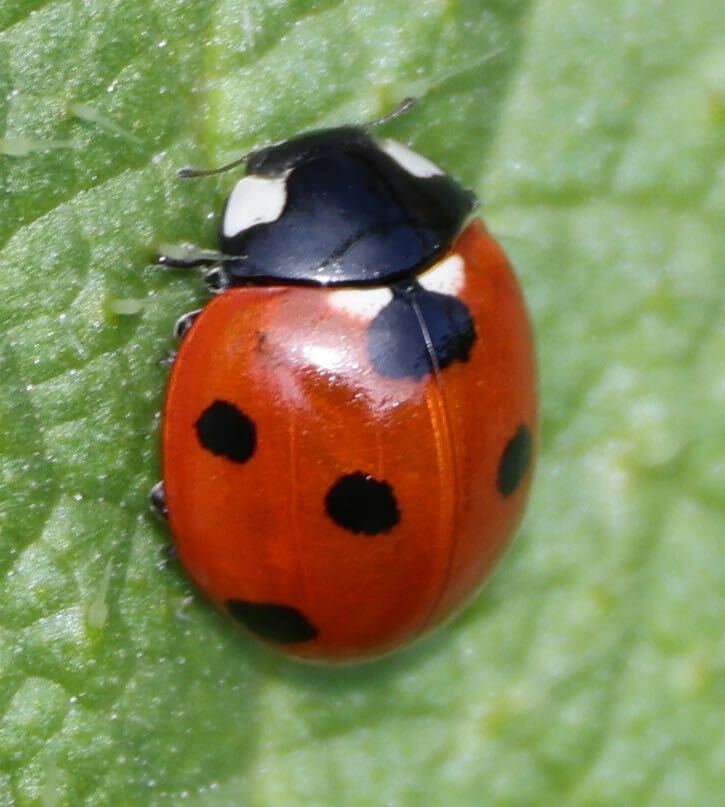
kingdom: Animalia
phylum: Arthropoda
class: Insecta
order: Coleoptera
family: Coccinellidae
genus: Coccinella
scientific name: Coccinella septempunctata
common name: Sevenspotted lady beetle
